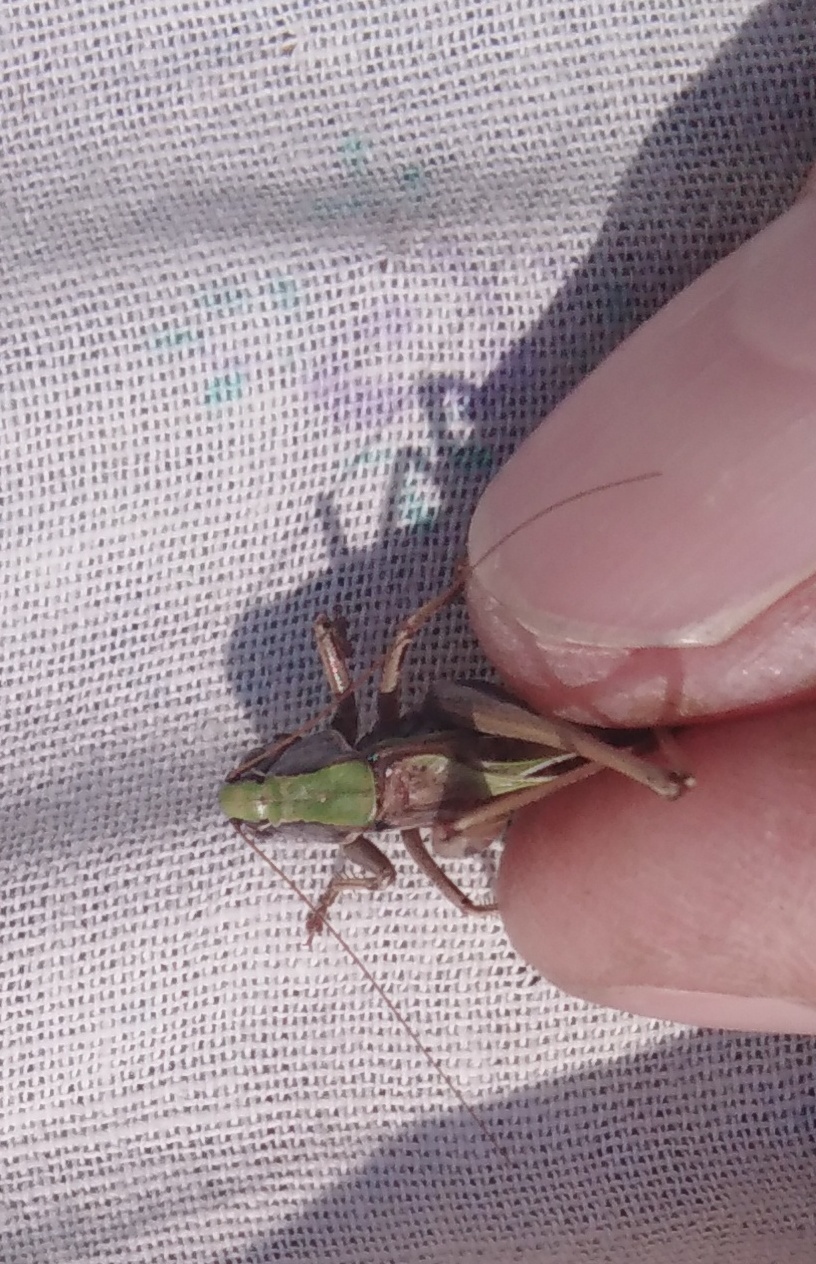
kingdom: Animalia
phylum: Arthropoda
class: Insecta
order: Orthoptera
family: Tettigoniidae
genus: Metrioptera
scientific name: Metrioptera brachyptera
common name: Bog bush-cricket
